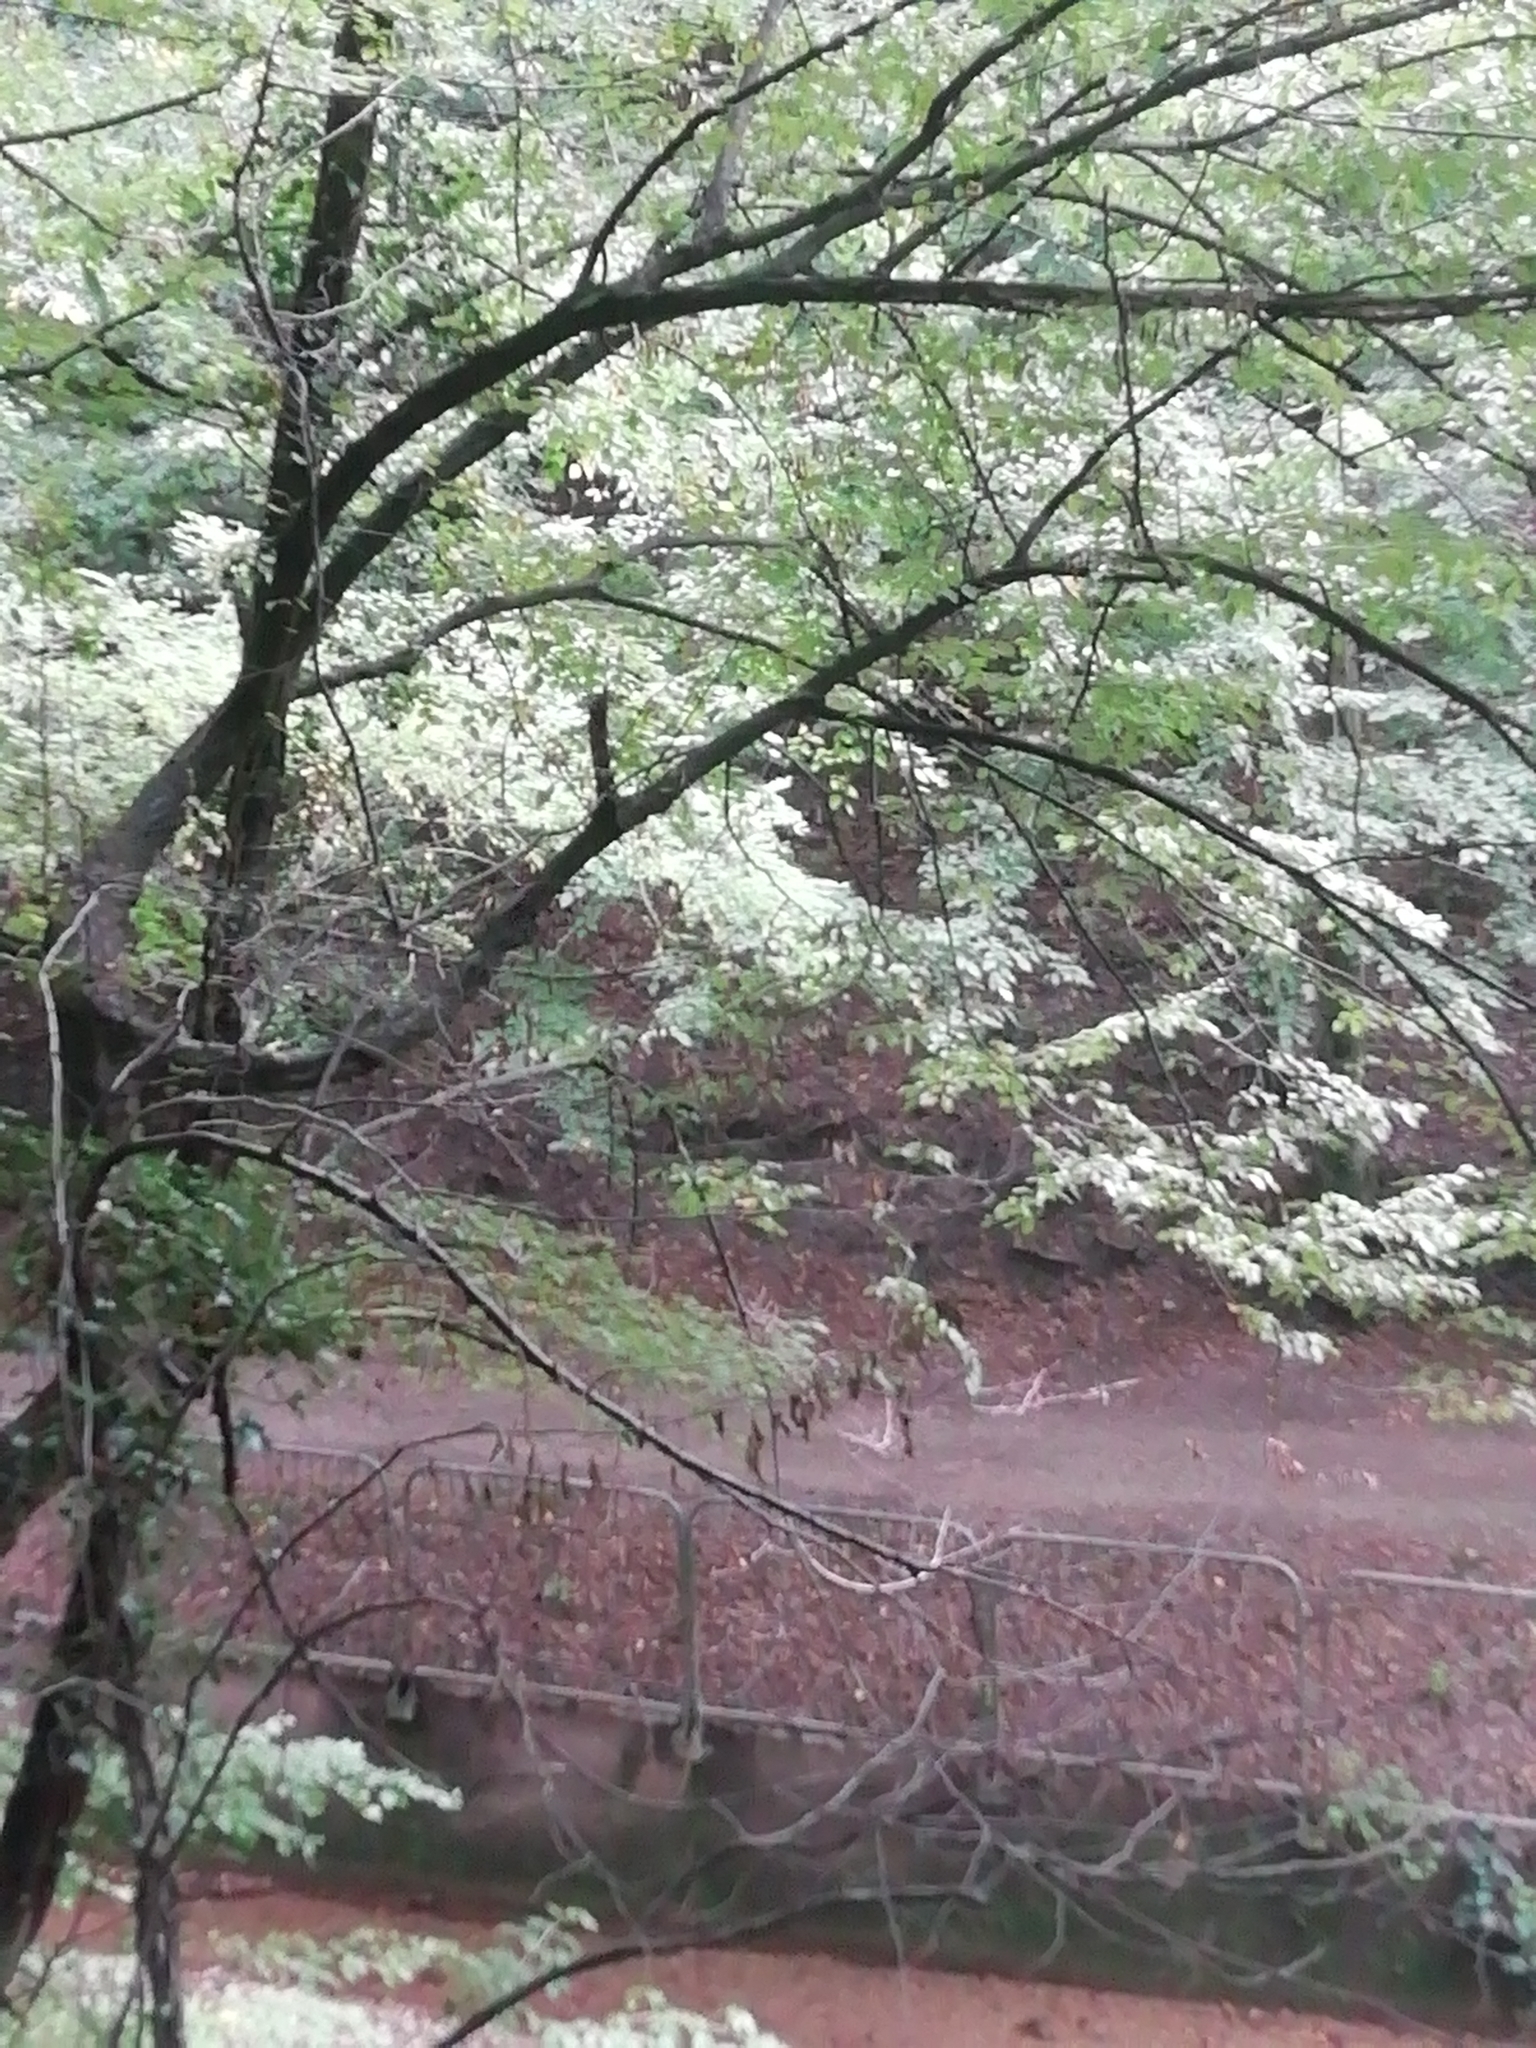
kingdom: Plantae
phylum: Tracheophyta
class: Magnoliopsida
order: Fagales
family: Fagaceae
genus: Fagus
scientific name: Fagus sylvatica
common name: Beech
